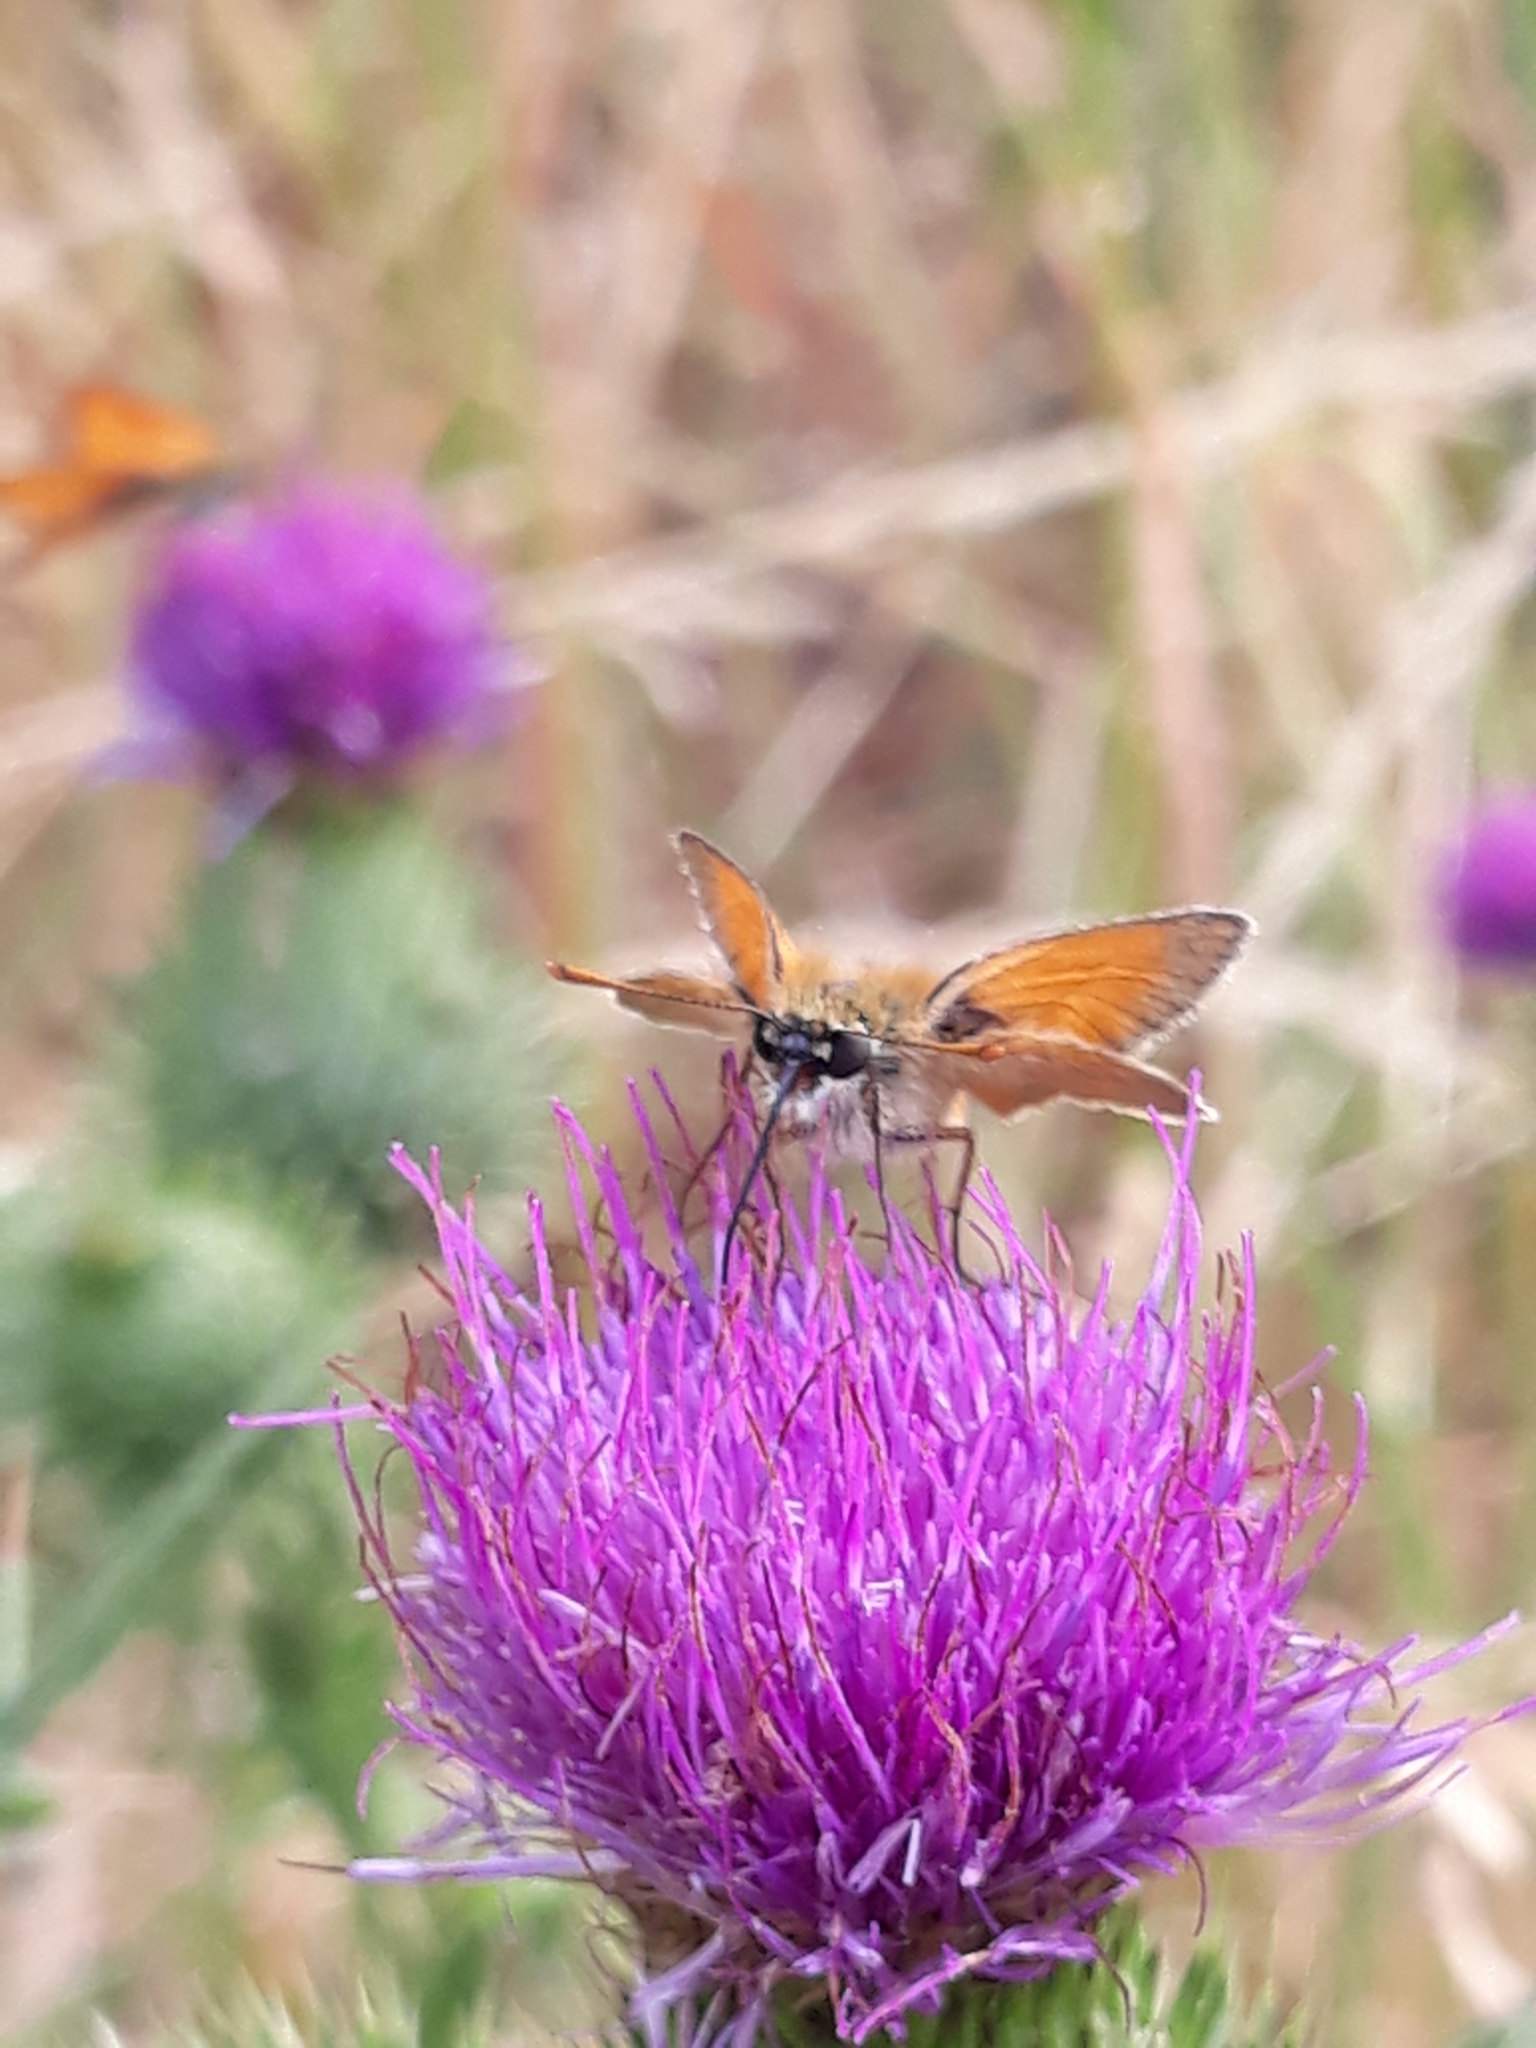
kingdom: Animalia
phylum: Arthropoda
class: Insecta
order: Lepidoptera
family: Hesperiidae
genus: Thymelicus
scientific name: Thymelicus sylvestris
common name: Small skipper
